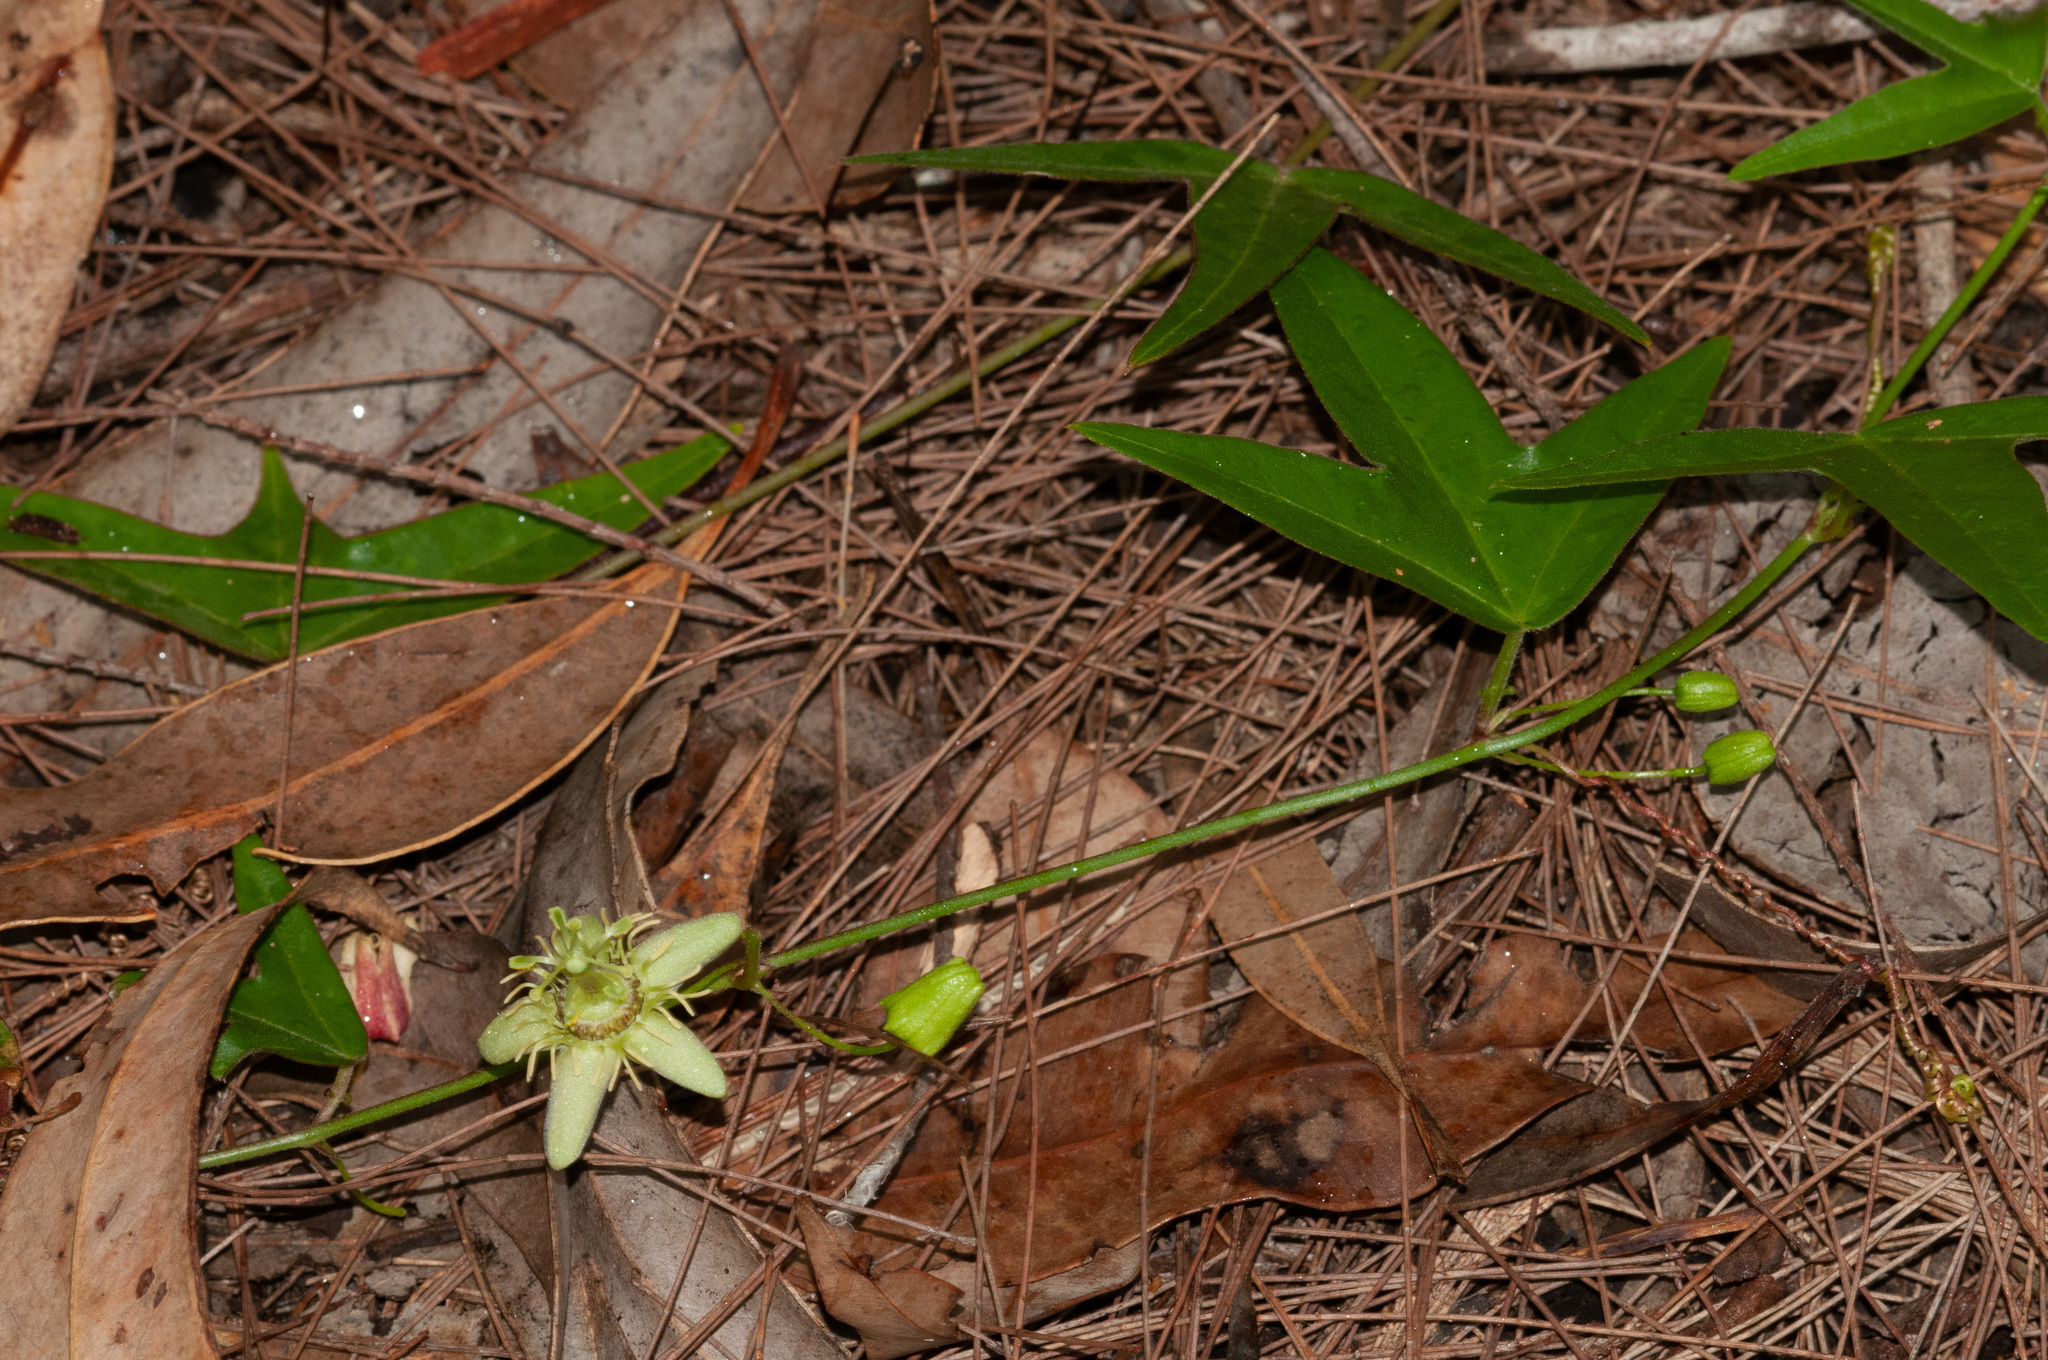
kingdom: Plantae
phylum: Tracheophyta
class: Magnoliopsida
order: Malpighiales
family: Passifloraceae
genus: Passiflora
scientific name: Passiflora suberosa
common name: Wild passionfruit
